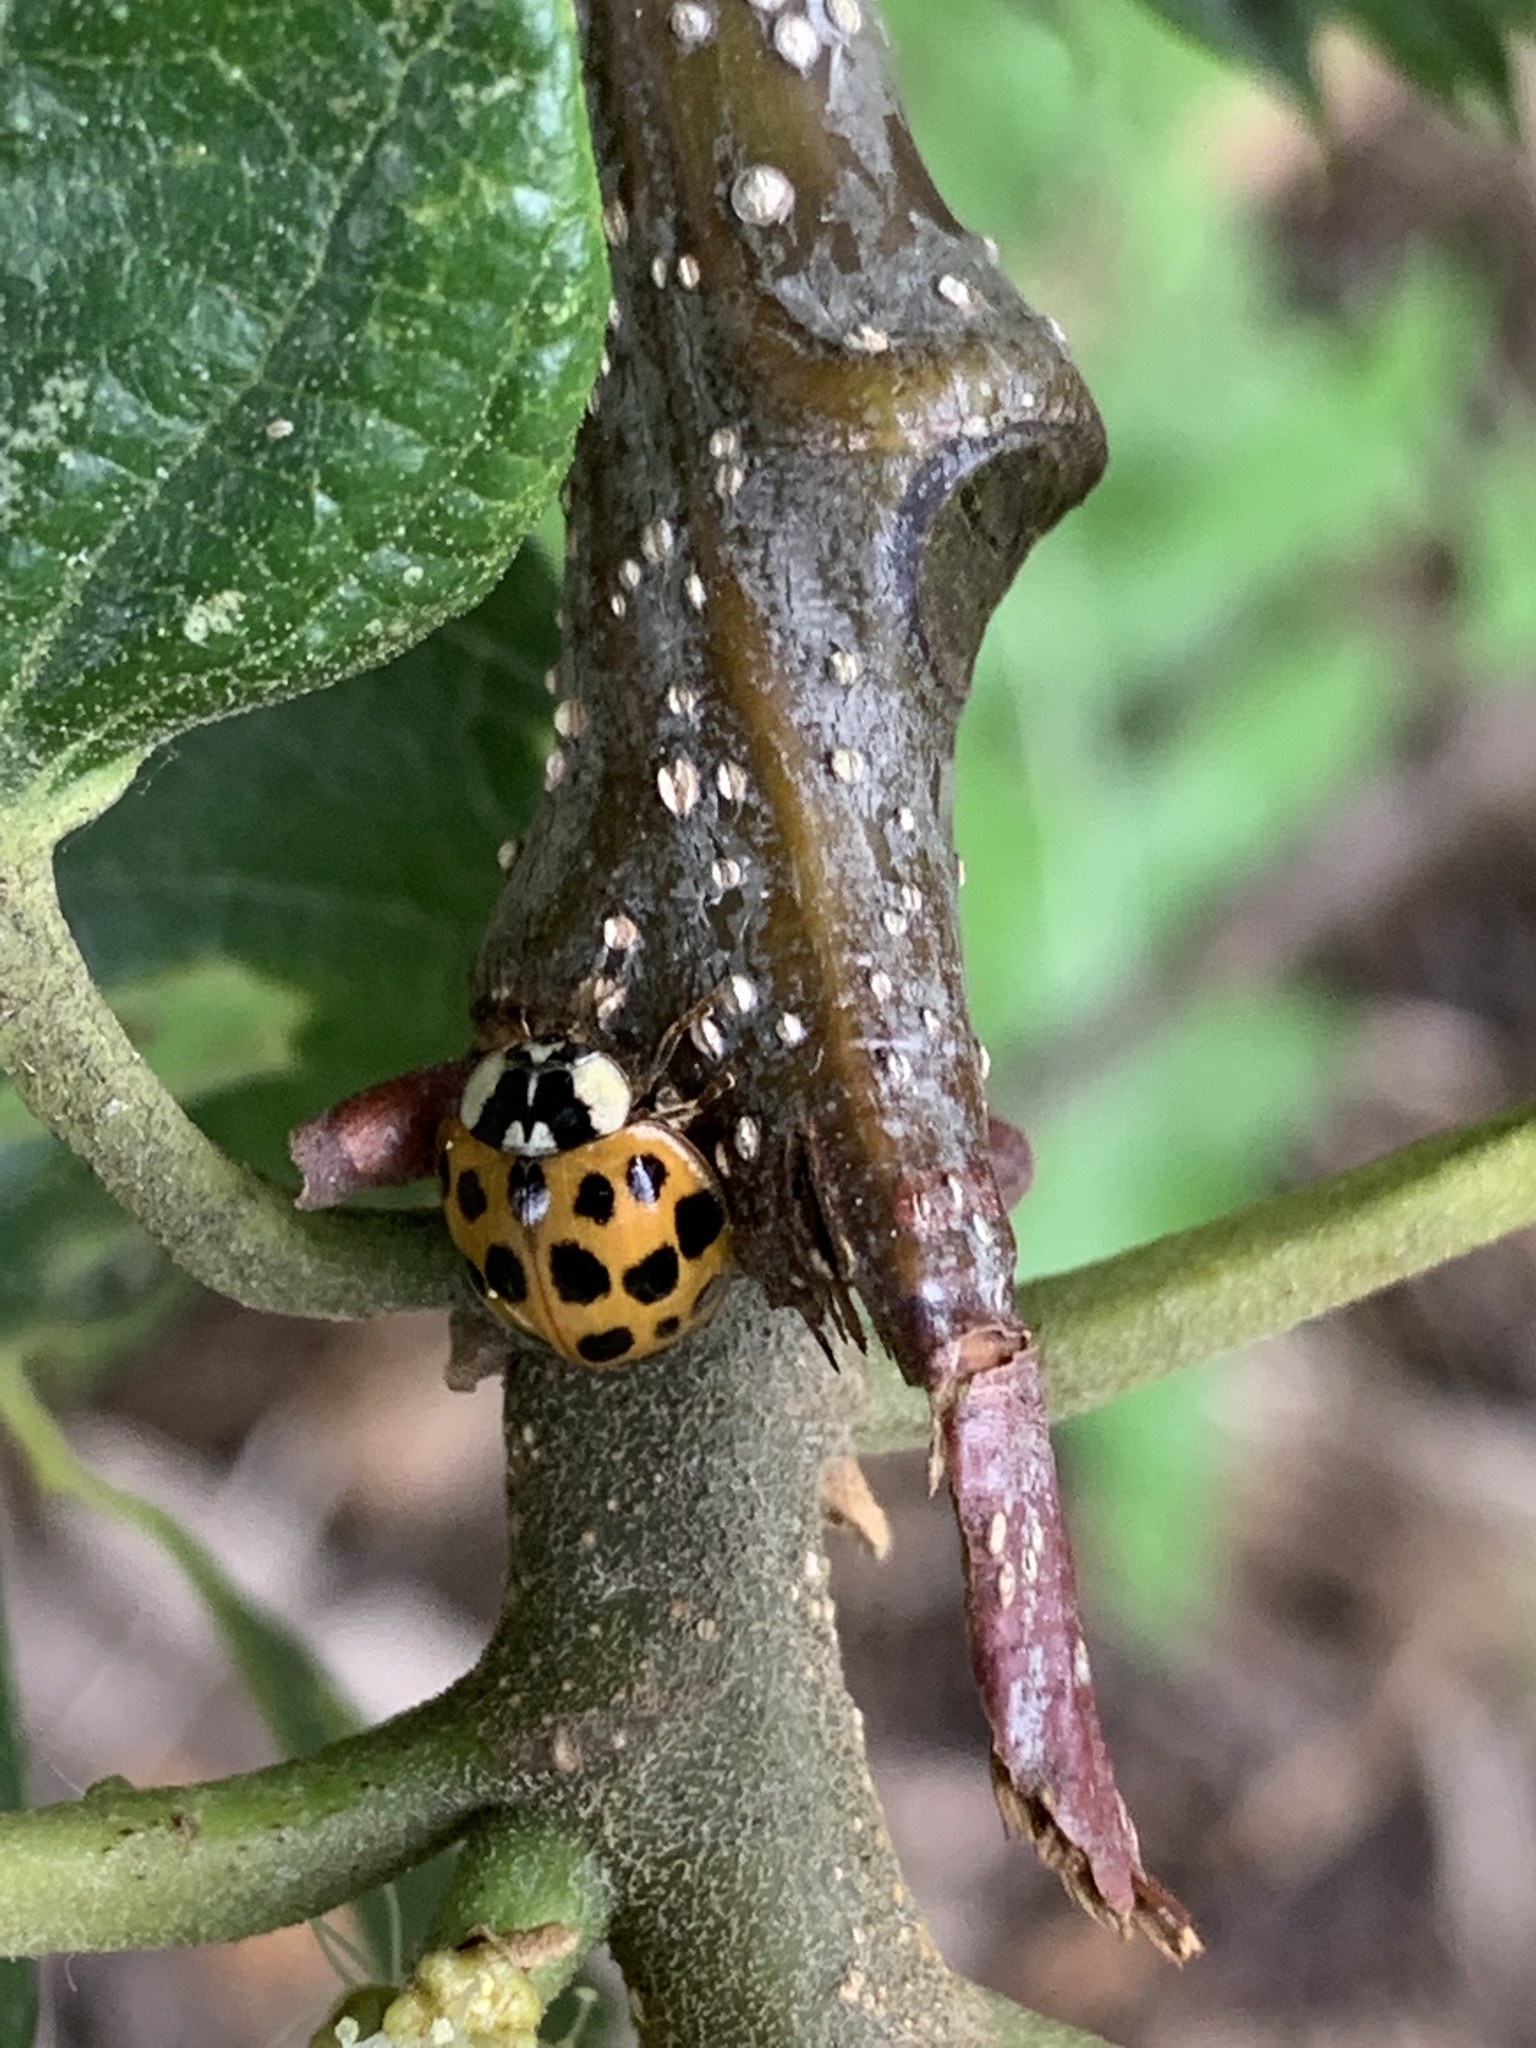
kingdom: Animalia
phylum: Arthropoda
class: Insecta
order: Coleoptera
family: Coccinellidae
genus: Harmonia
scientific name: Harmonia axyridis
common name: Harlequin ladybird
